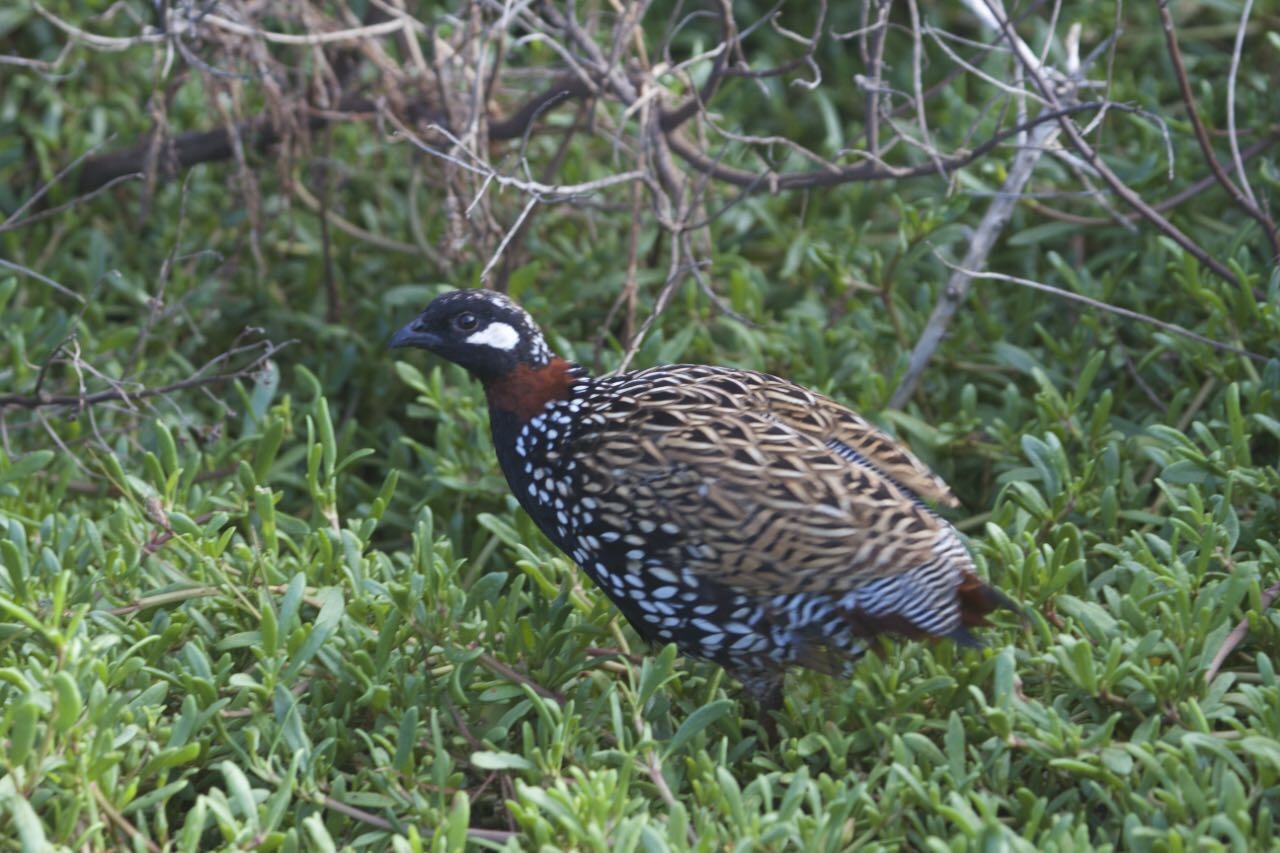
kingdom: Animalia
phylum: Chordata
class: Aves
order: Galliformes
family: Phasianidae
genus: Francolinus
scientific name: Francolinus francolinus
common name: Black francolin
